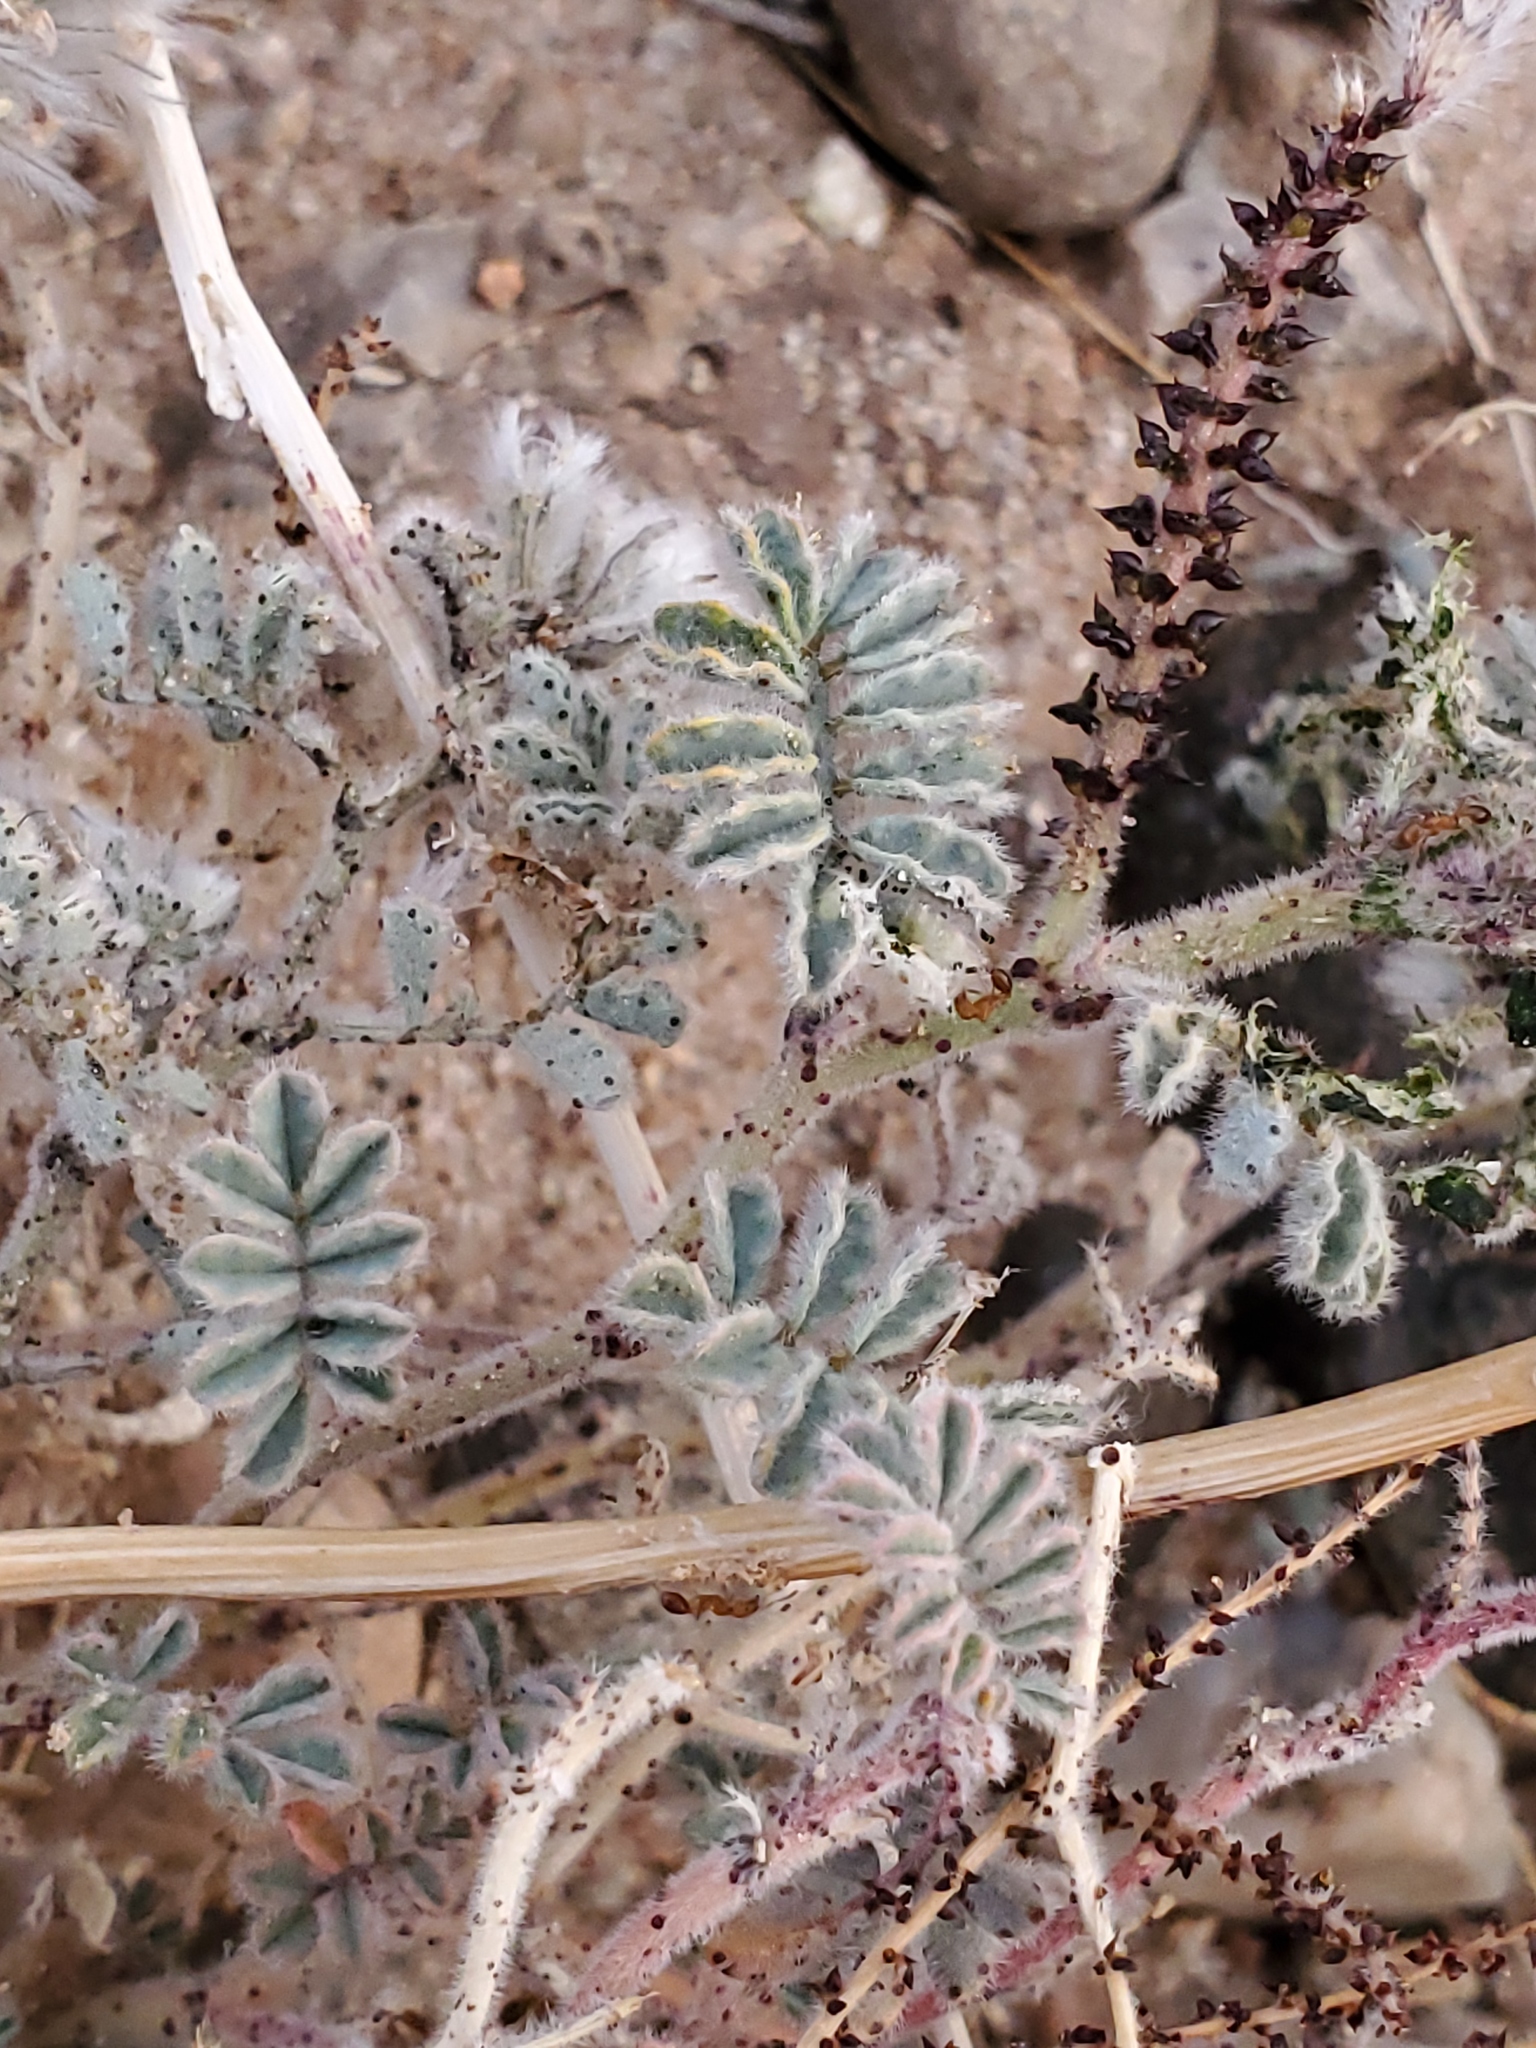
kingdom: Plantae
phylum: Tracheophyta
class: Magnoliopsida
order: Fabales
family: Fabaceae
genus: Dalea
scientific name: Dalea mollissima
